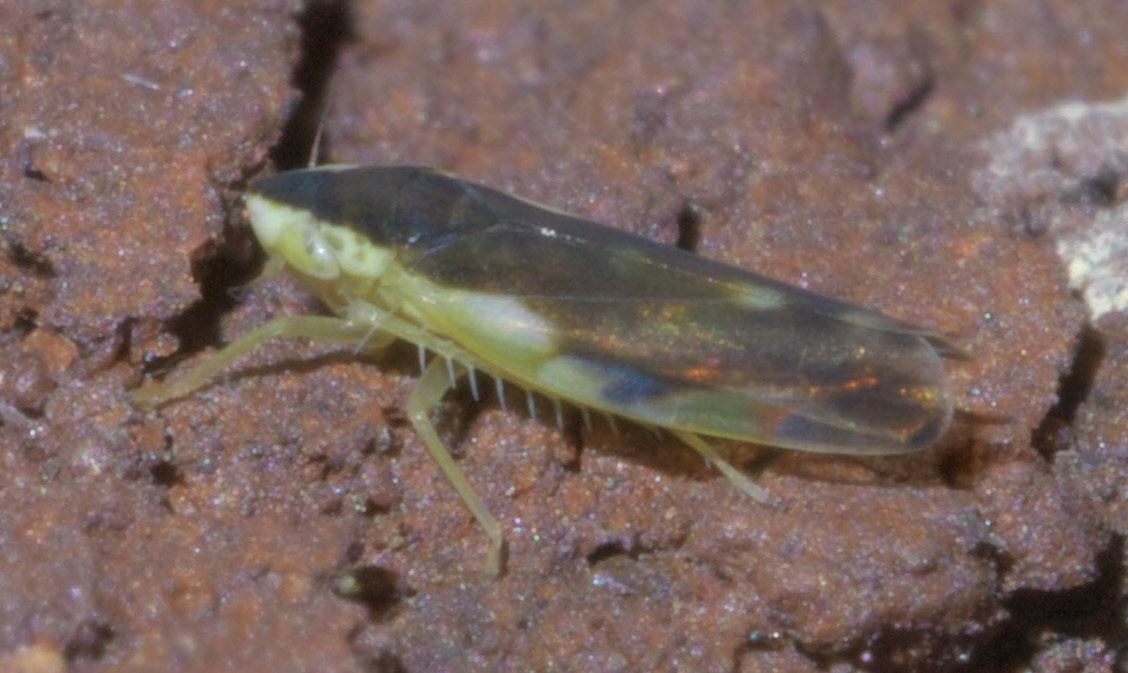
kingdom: Animalia
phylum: Arthropoda
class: Insecta
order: Hemiptera
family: Cicadellidae
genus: Erythroneura
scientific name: Erythroneura aclys
